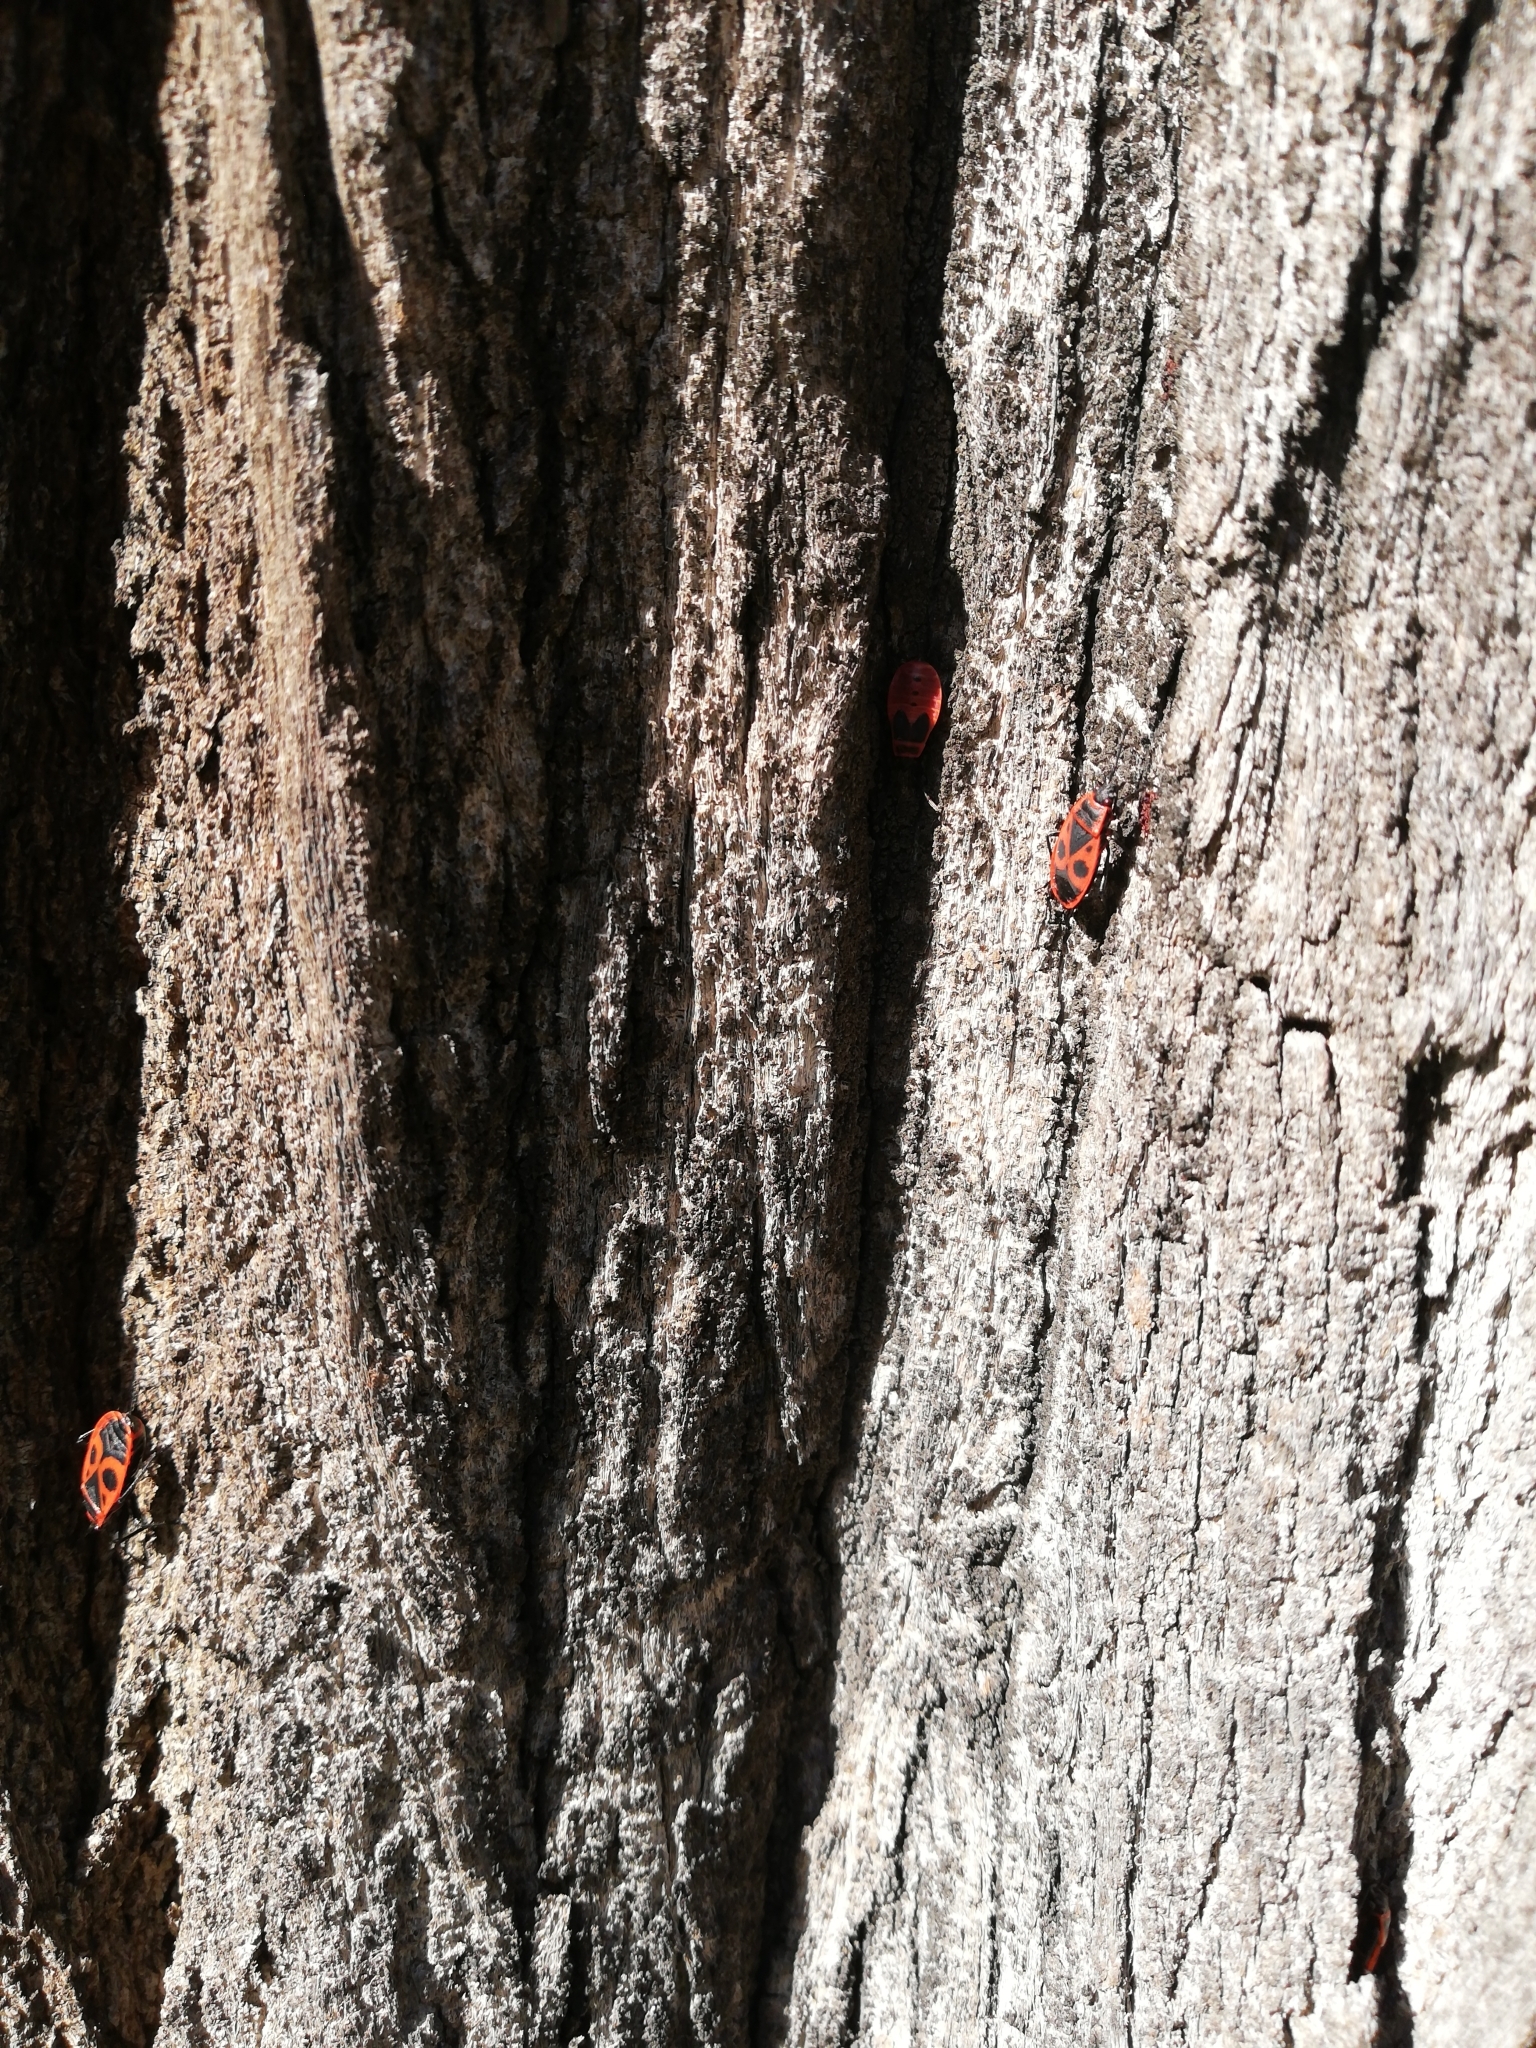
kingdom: Animalia
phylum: Arthropoda
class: Insecta
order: Hemiptera
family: Pyrrhocoridae
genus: Pyrrhocoris
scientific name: Pyrrhocoris apterus
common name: Firebug
